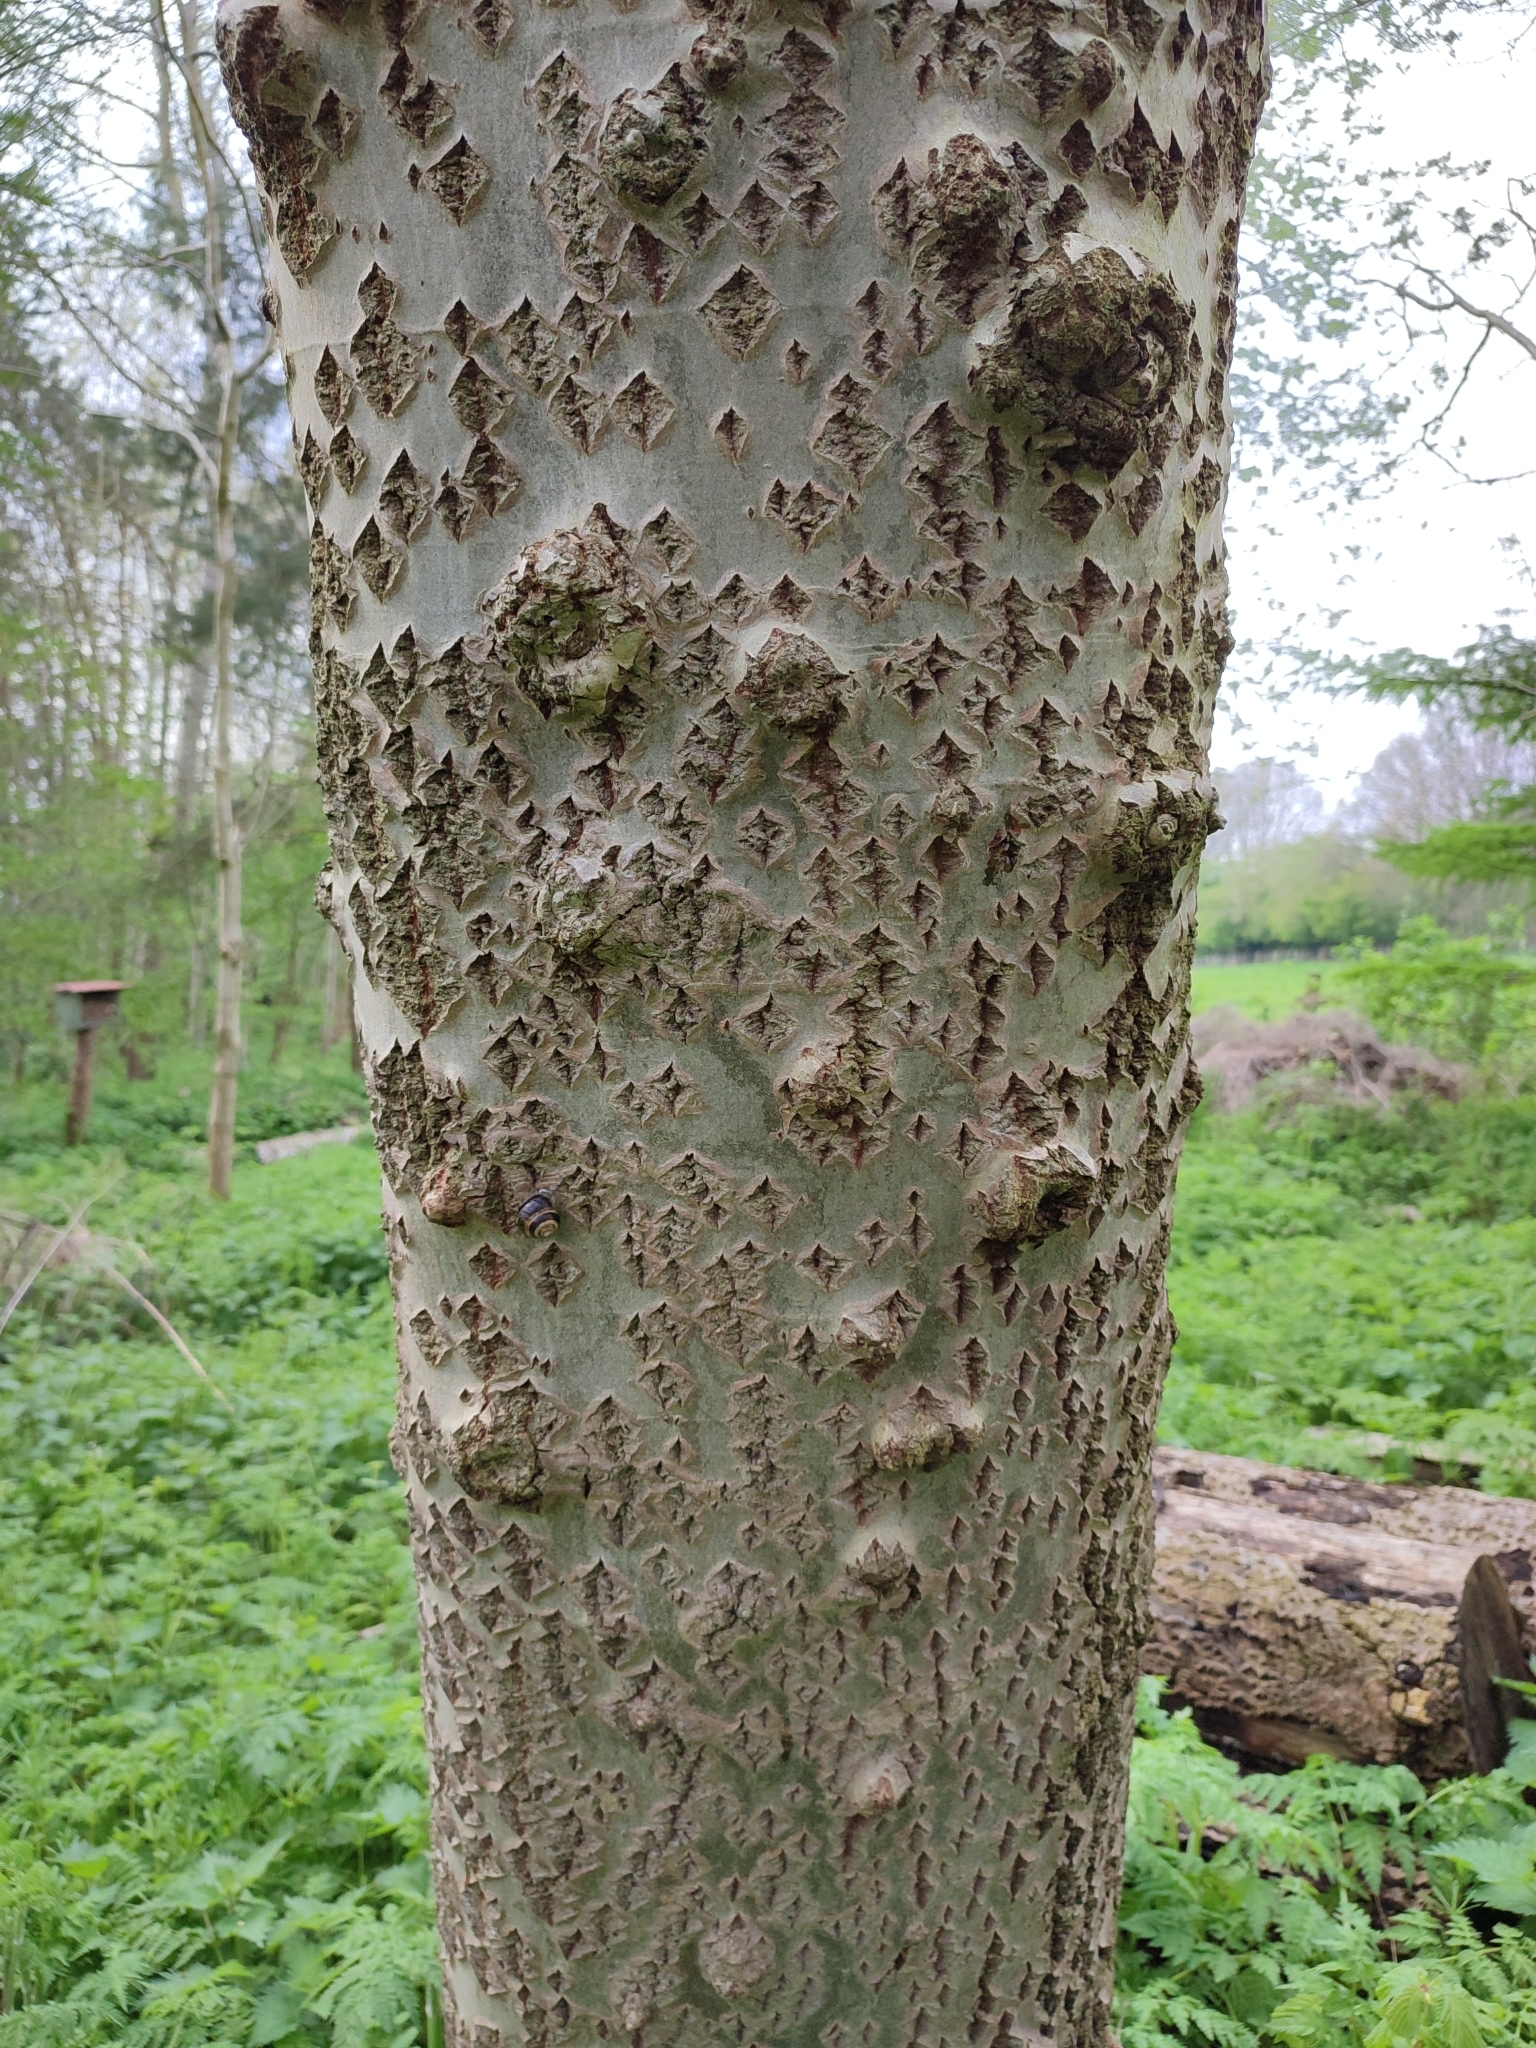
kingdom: Plantae
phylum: Tracheophyta
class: Magnoliopsida
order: Malpighiales
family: Salicaceae
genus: Populus
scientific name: Populus alba
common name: White poplar
